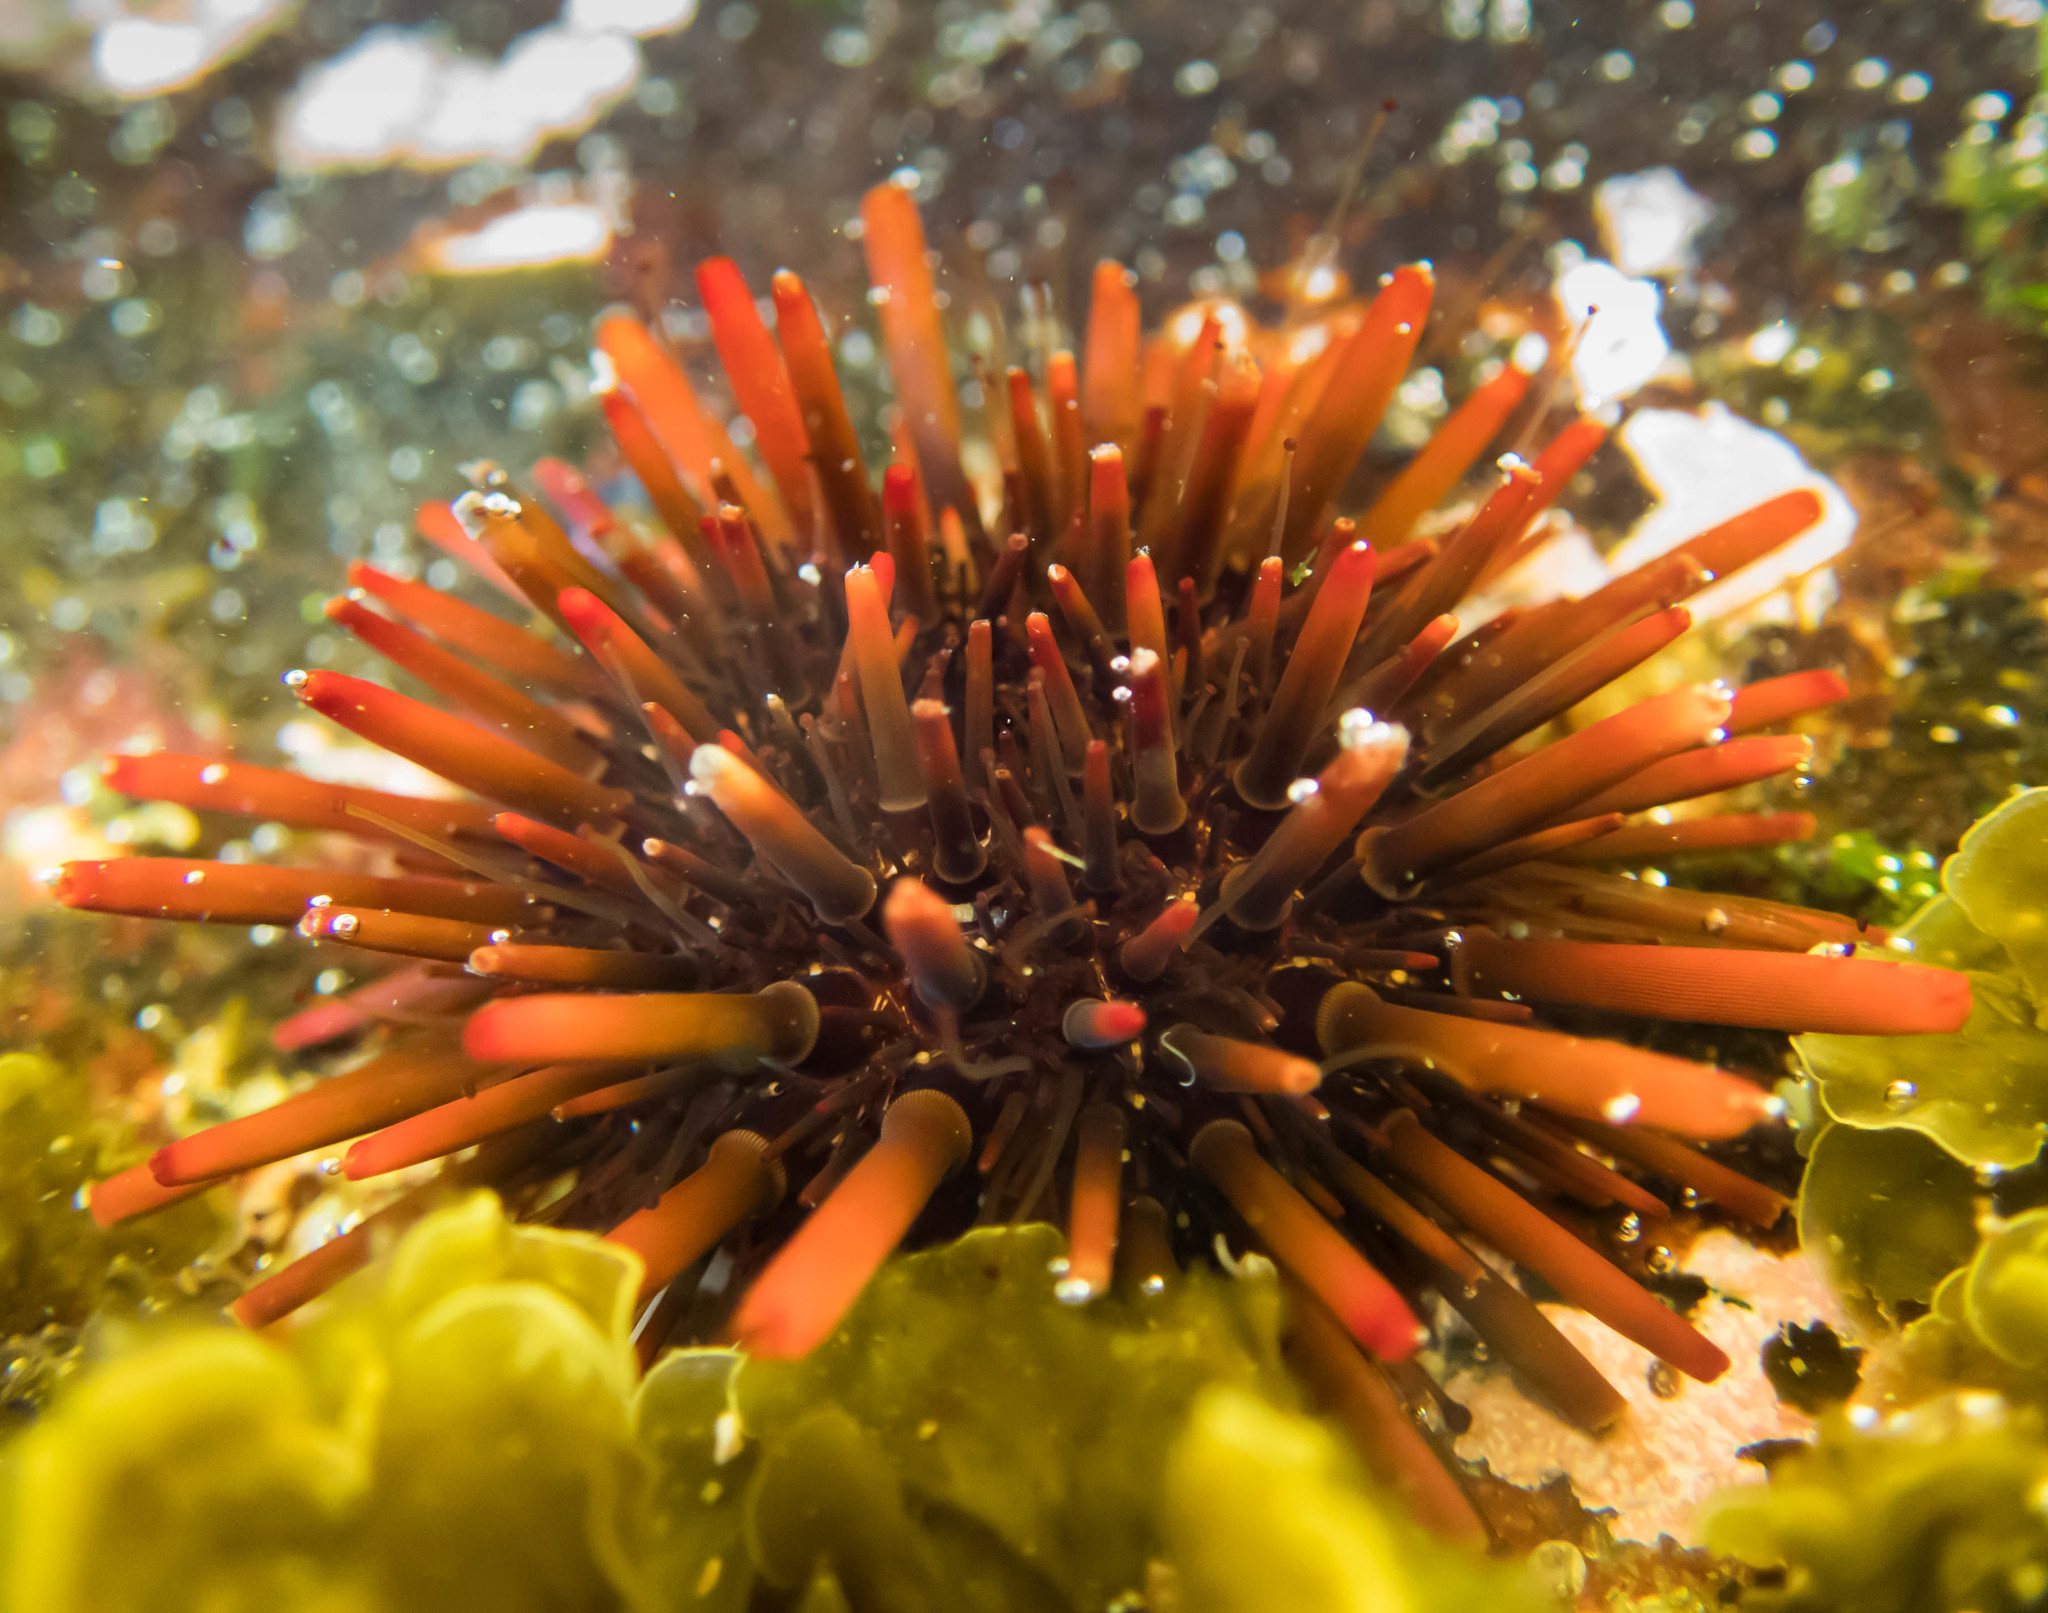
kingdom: Animalia
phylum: Echinodermata
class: Echinoidea
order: Camarodonta
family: Echinometridae
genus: Heliocidaris
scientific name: Heliocidaris tuberculata
